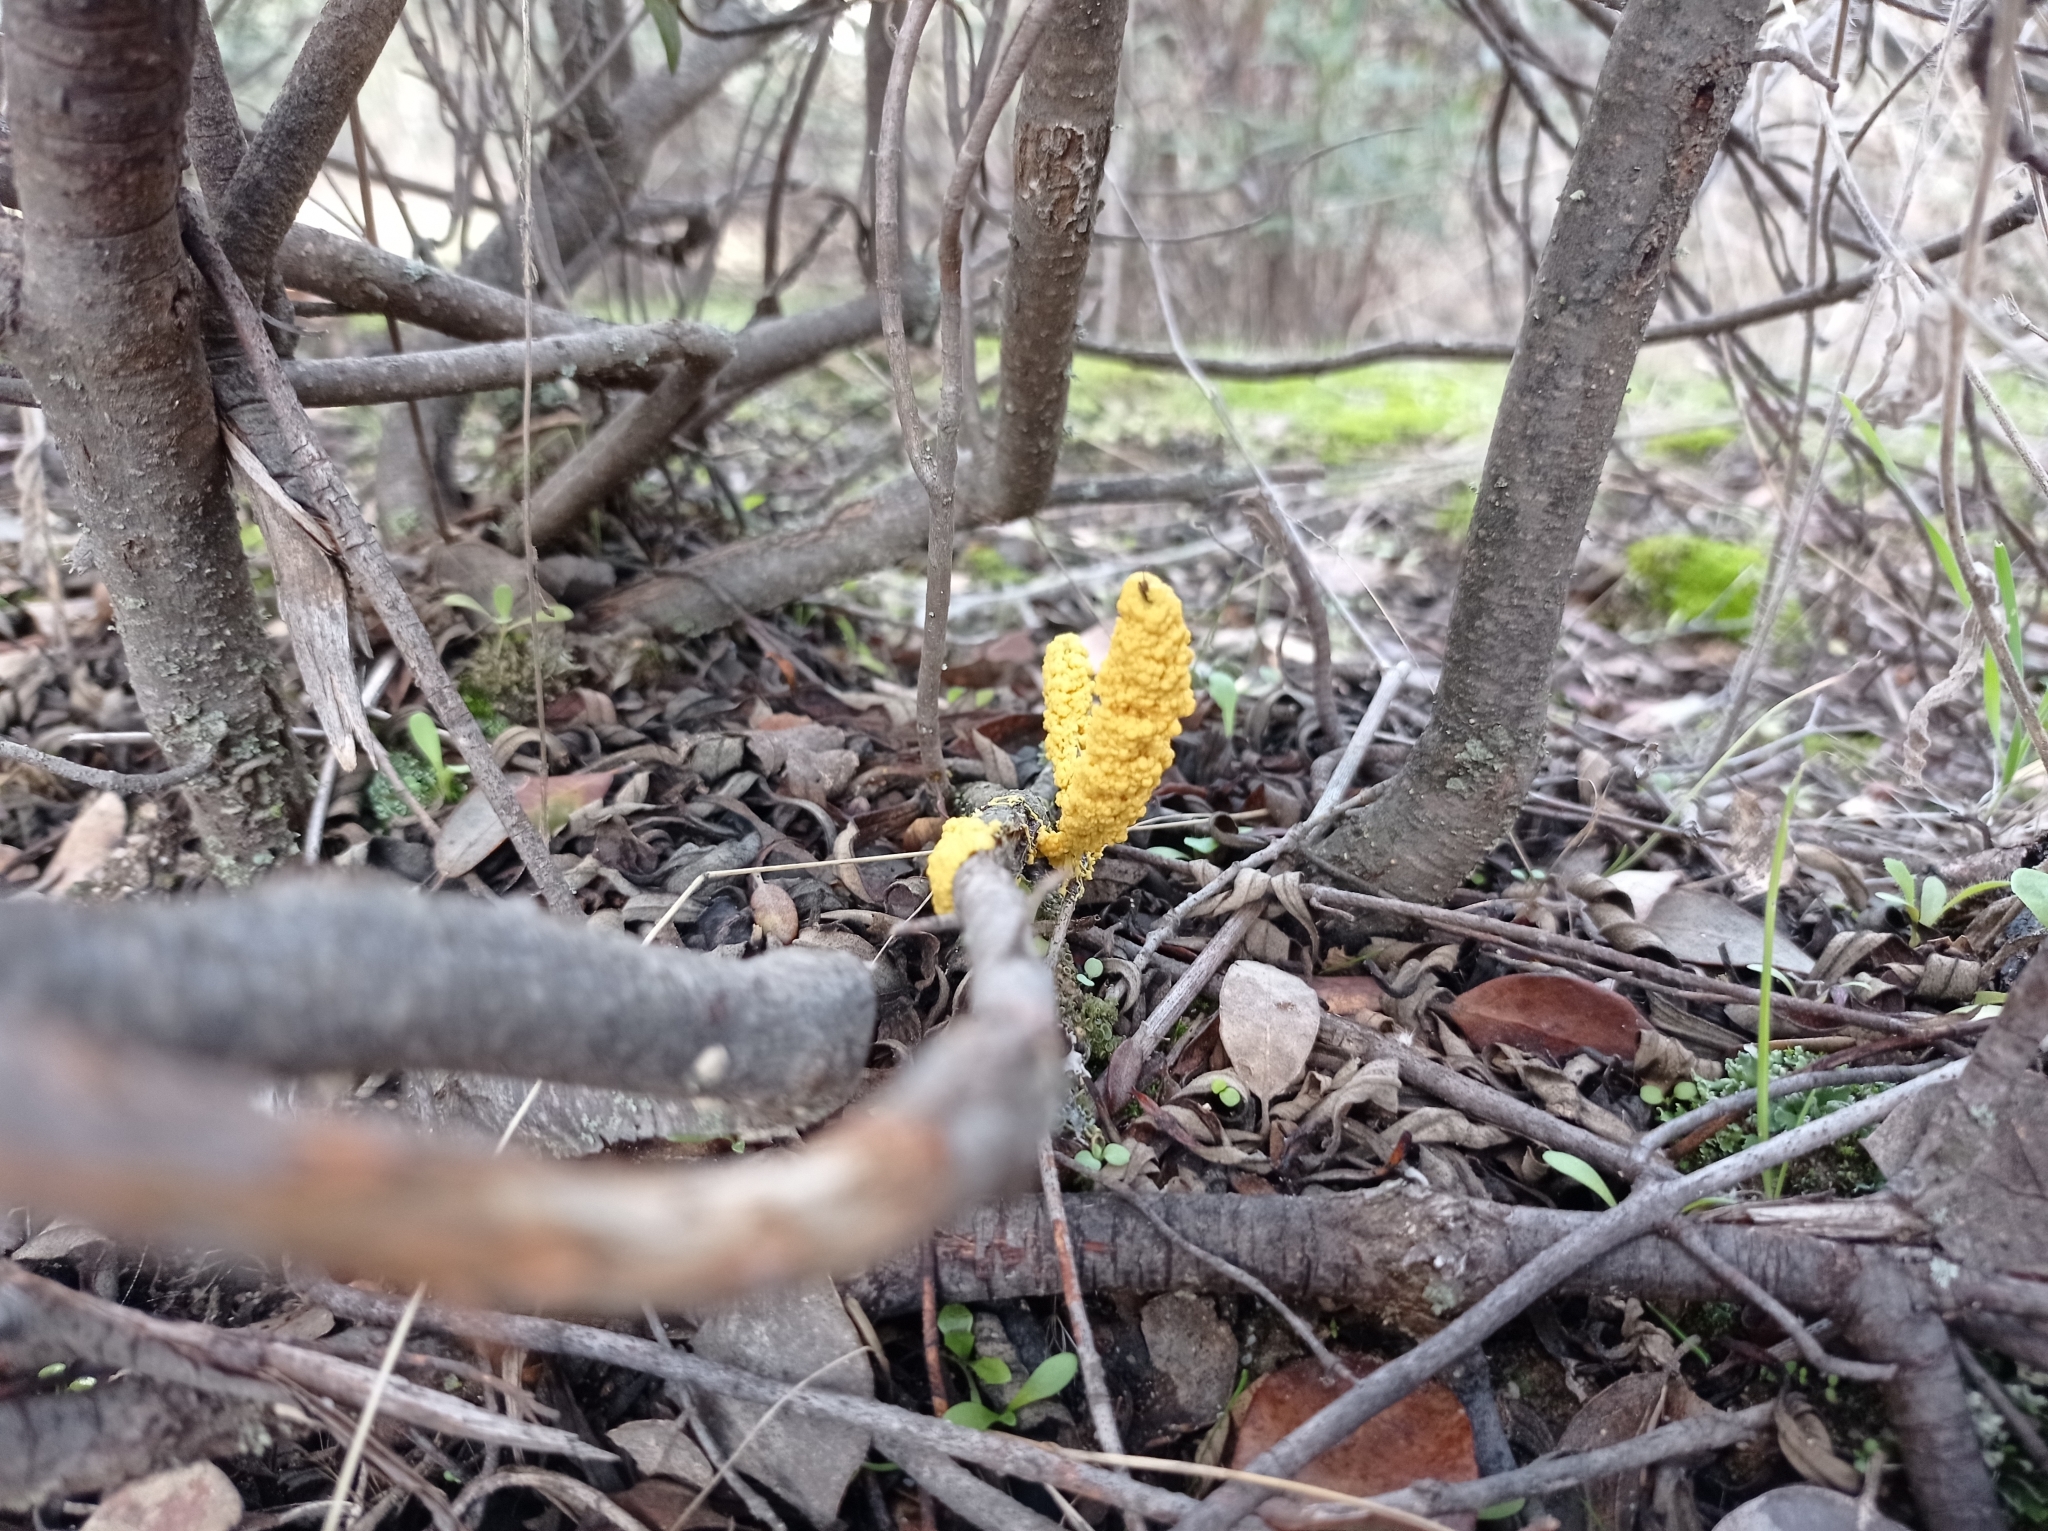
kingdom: Protozoa
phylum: Mycetozoa
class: Myxomycetes
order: Physarales
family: Physaraceae
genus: Fuligo
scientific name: Fuligo septica
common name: Dog vomit slime mold
